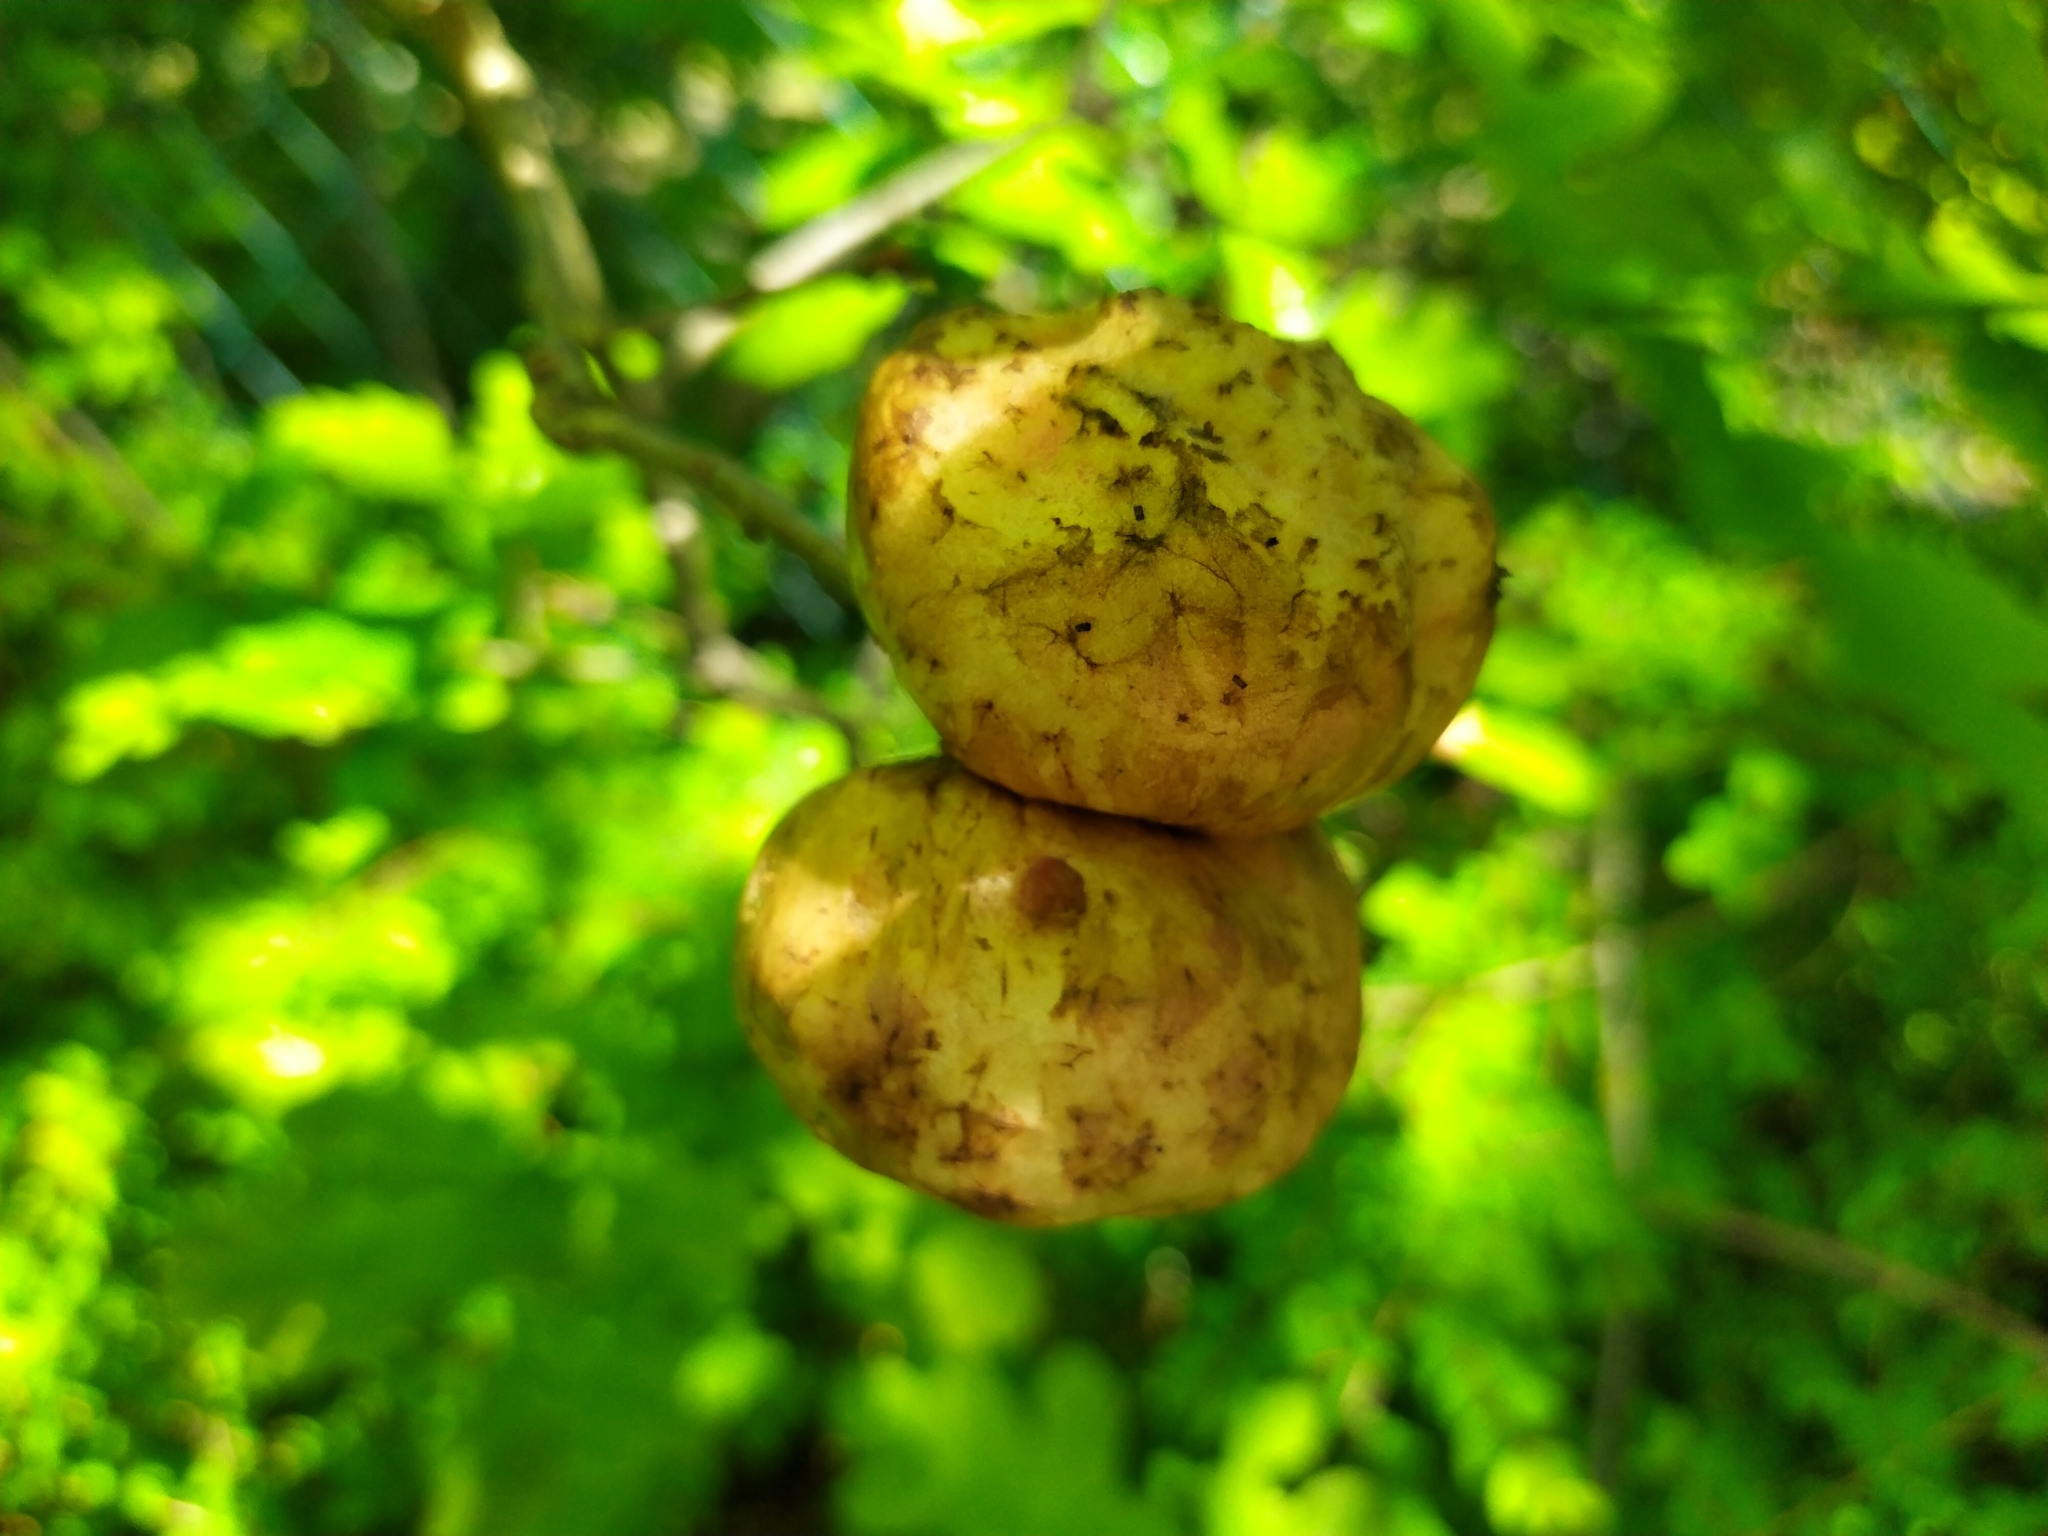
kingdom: Animalia
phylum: Arthropoda
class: Insecta
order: Hymenoptera
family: Cynipidae
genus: Biorhiza
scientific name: Biorhiza pallida
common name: Oak apple
